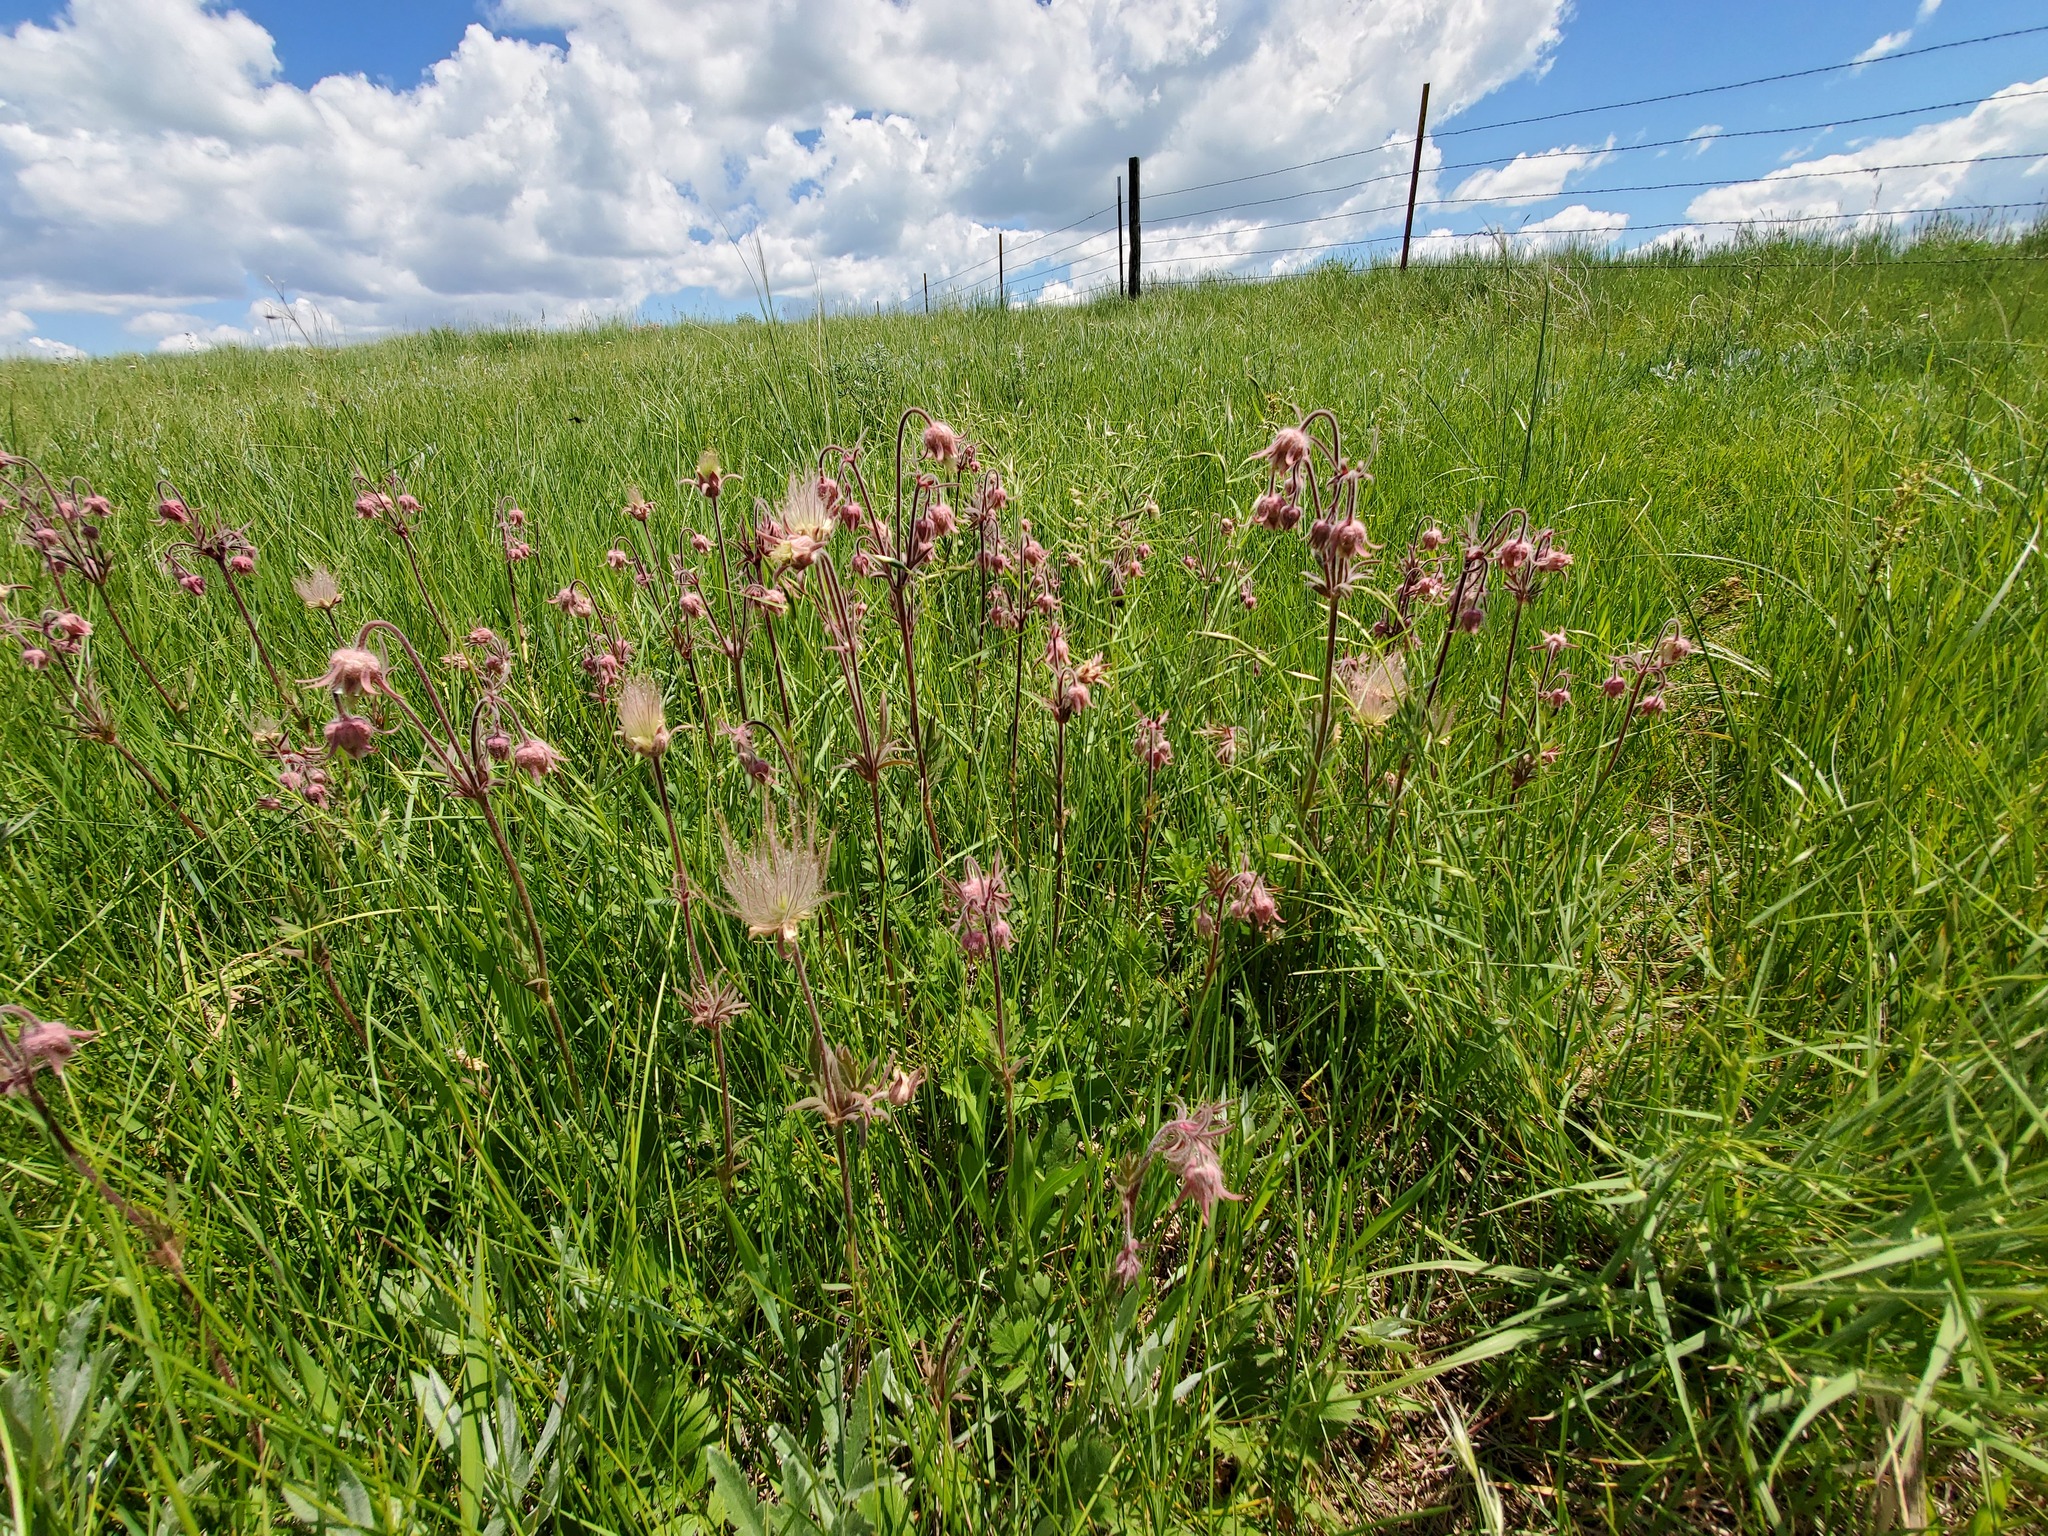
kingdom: Plantae
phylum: Tracheophyta
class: Magnoliopsida
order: Rosales
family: Rosaceae
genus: Geum
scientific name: Geum triflorum
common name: Old man's whiskers
